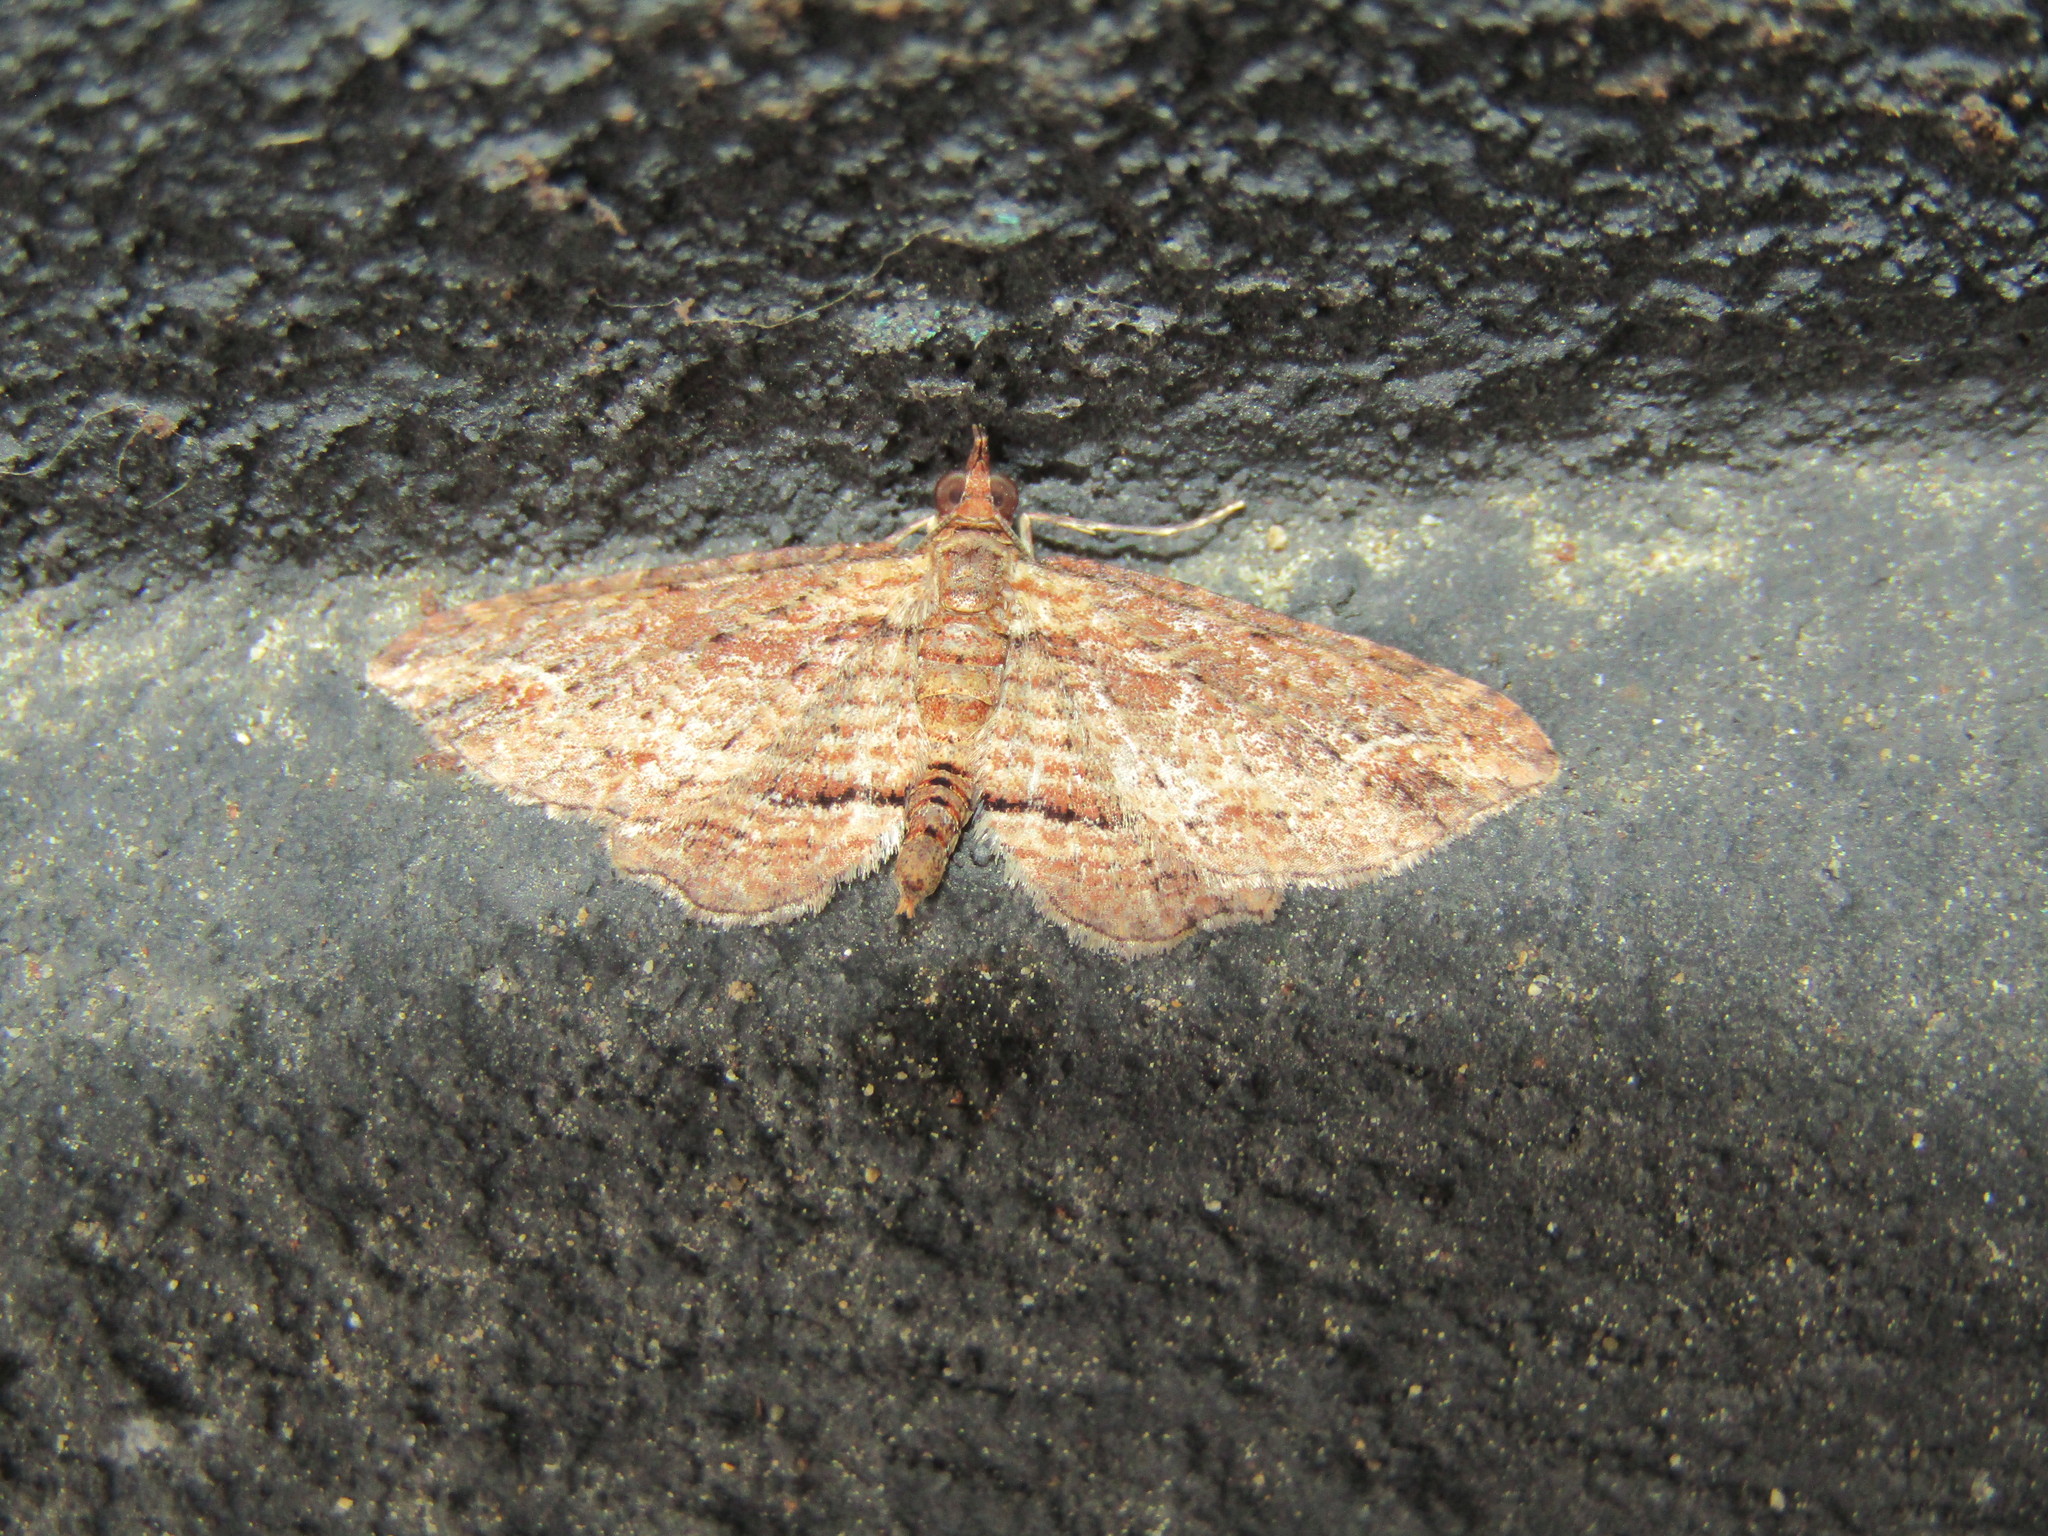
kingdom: Animalia
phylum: Arthropoda
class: Insecta
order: Lepidoptera
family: Geometridae
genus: Chloroclystis
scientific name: Chloroclystis filata
